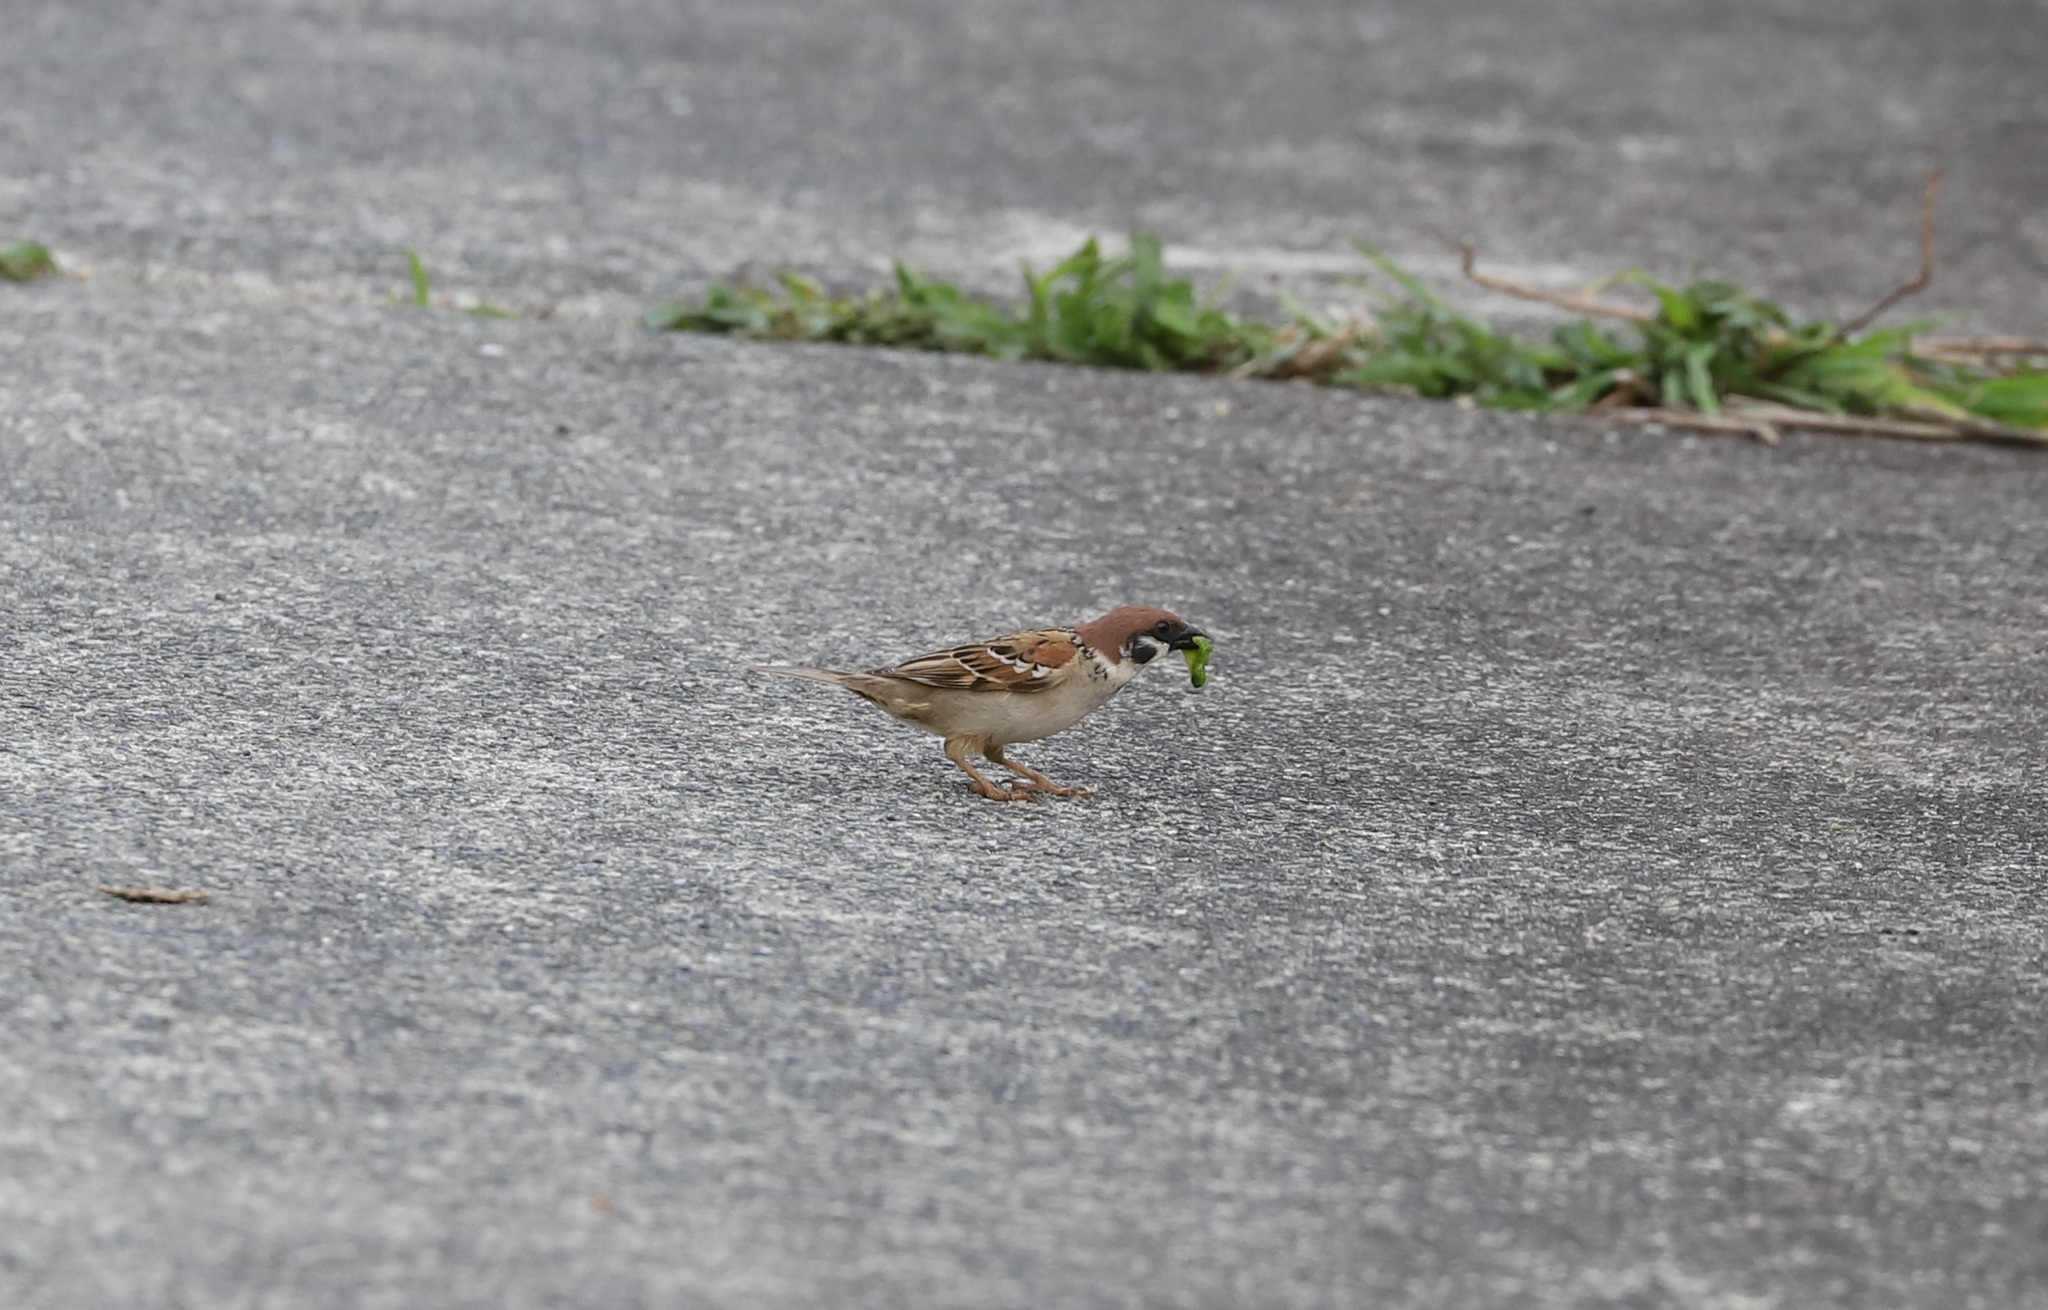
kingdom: Animalia
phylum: Chordata
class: Aves
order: Passeriformes
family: Passeridae
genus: Passer
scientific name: Passer montanus
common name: Eurasian tree sparrow
